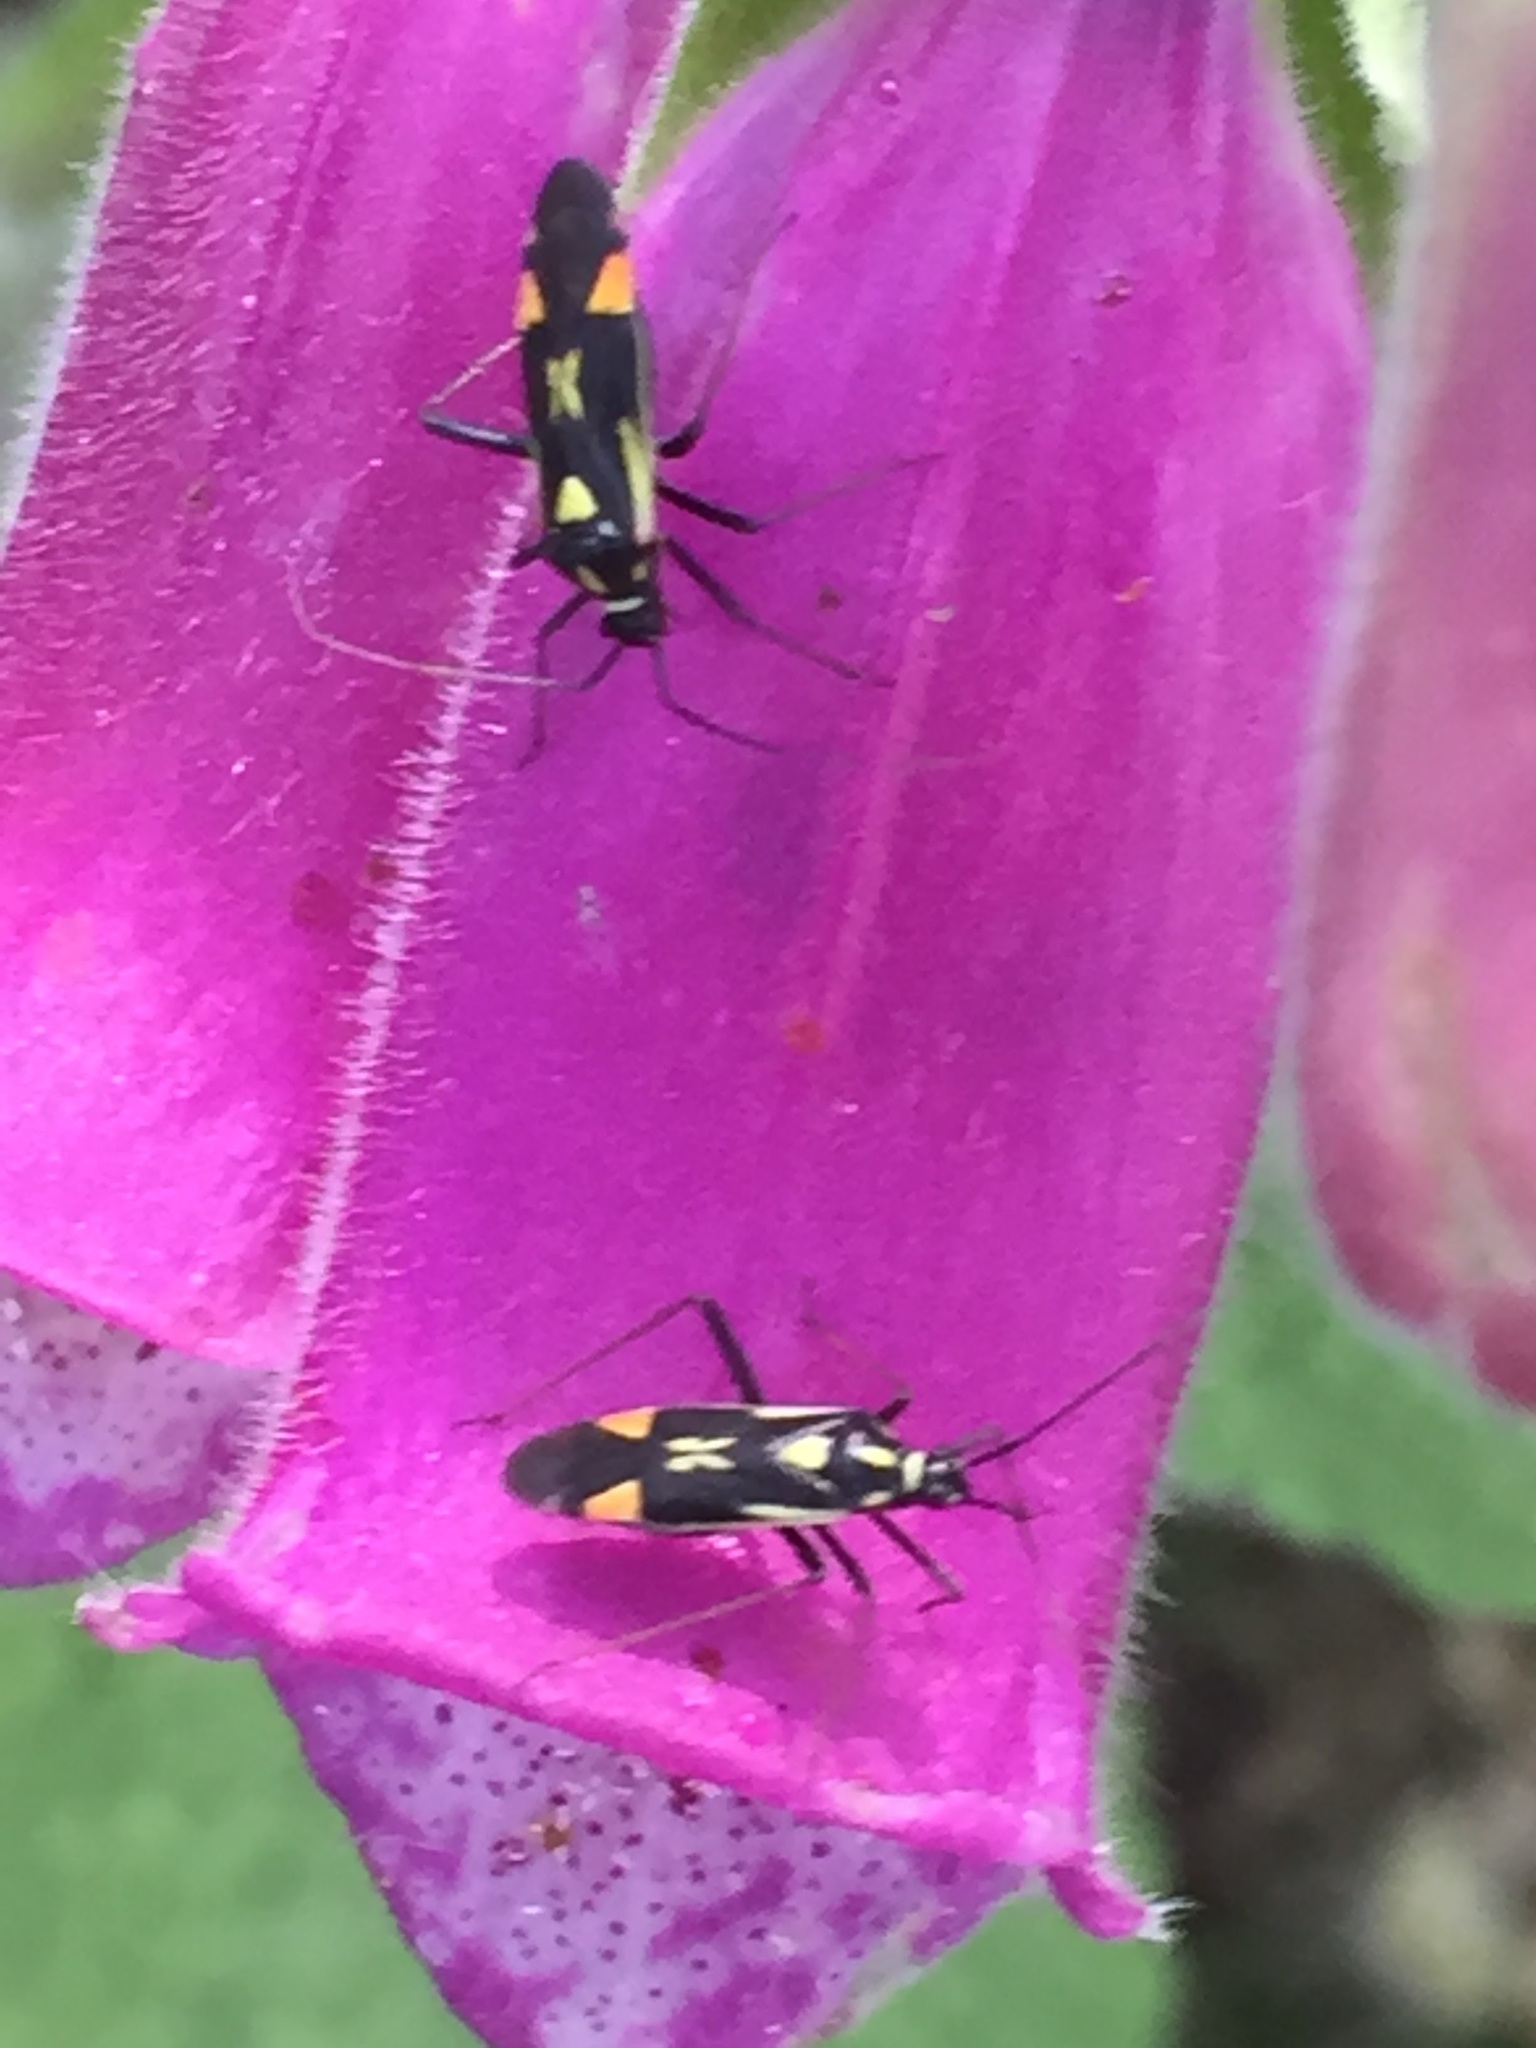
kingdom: Animalia
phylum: Arthropoda
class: Insecta
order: Hemiptera
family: Miridae
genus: Grypocoris
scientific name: Grypocoris stysi
